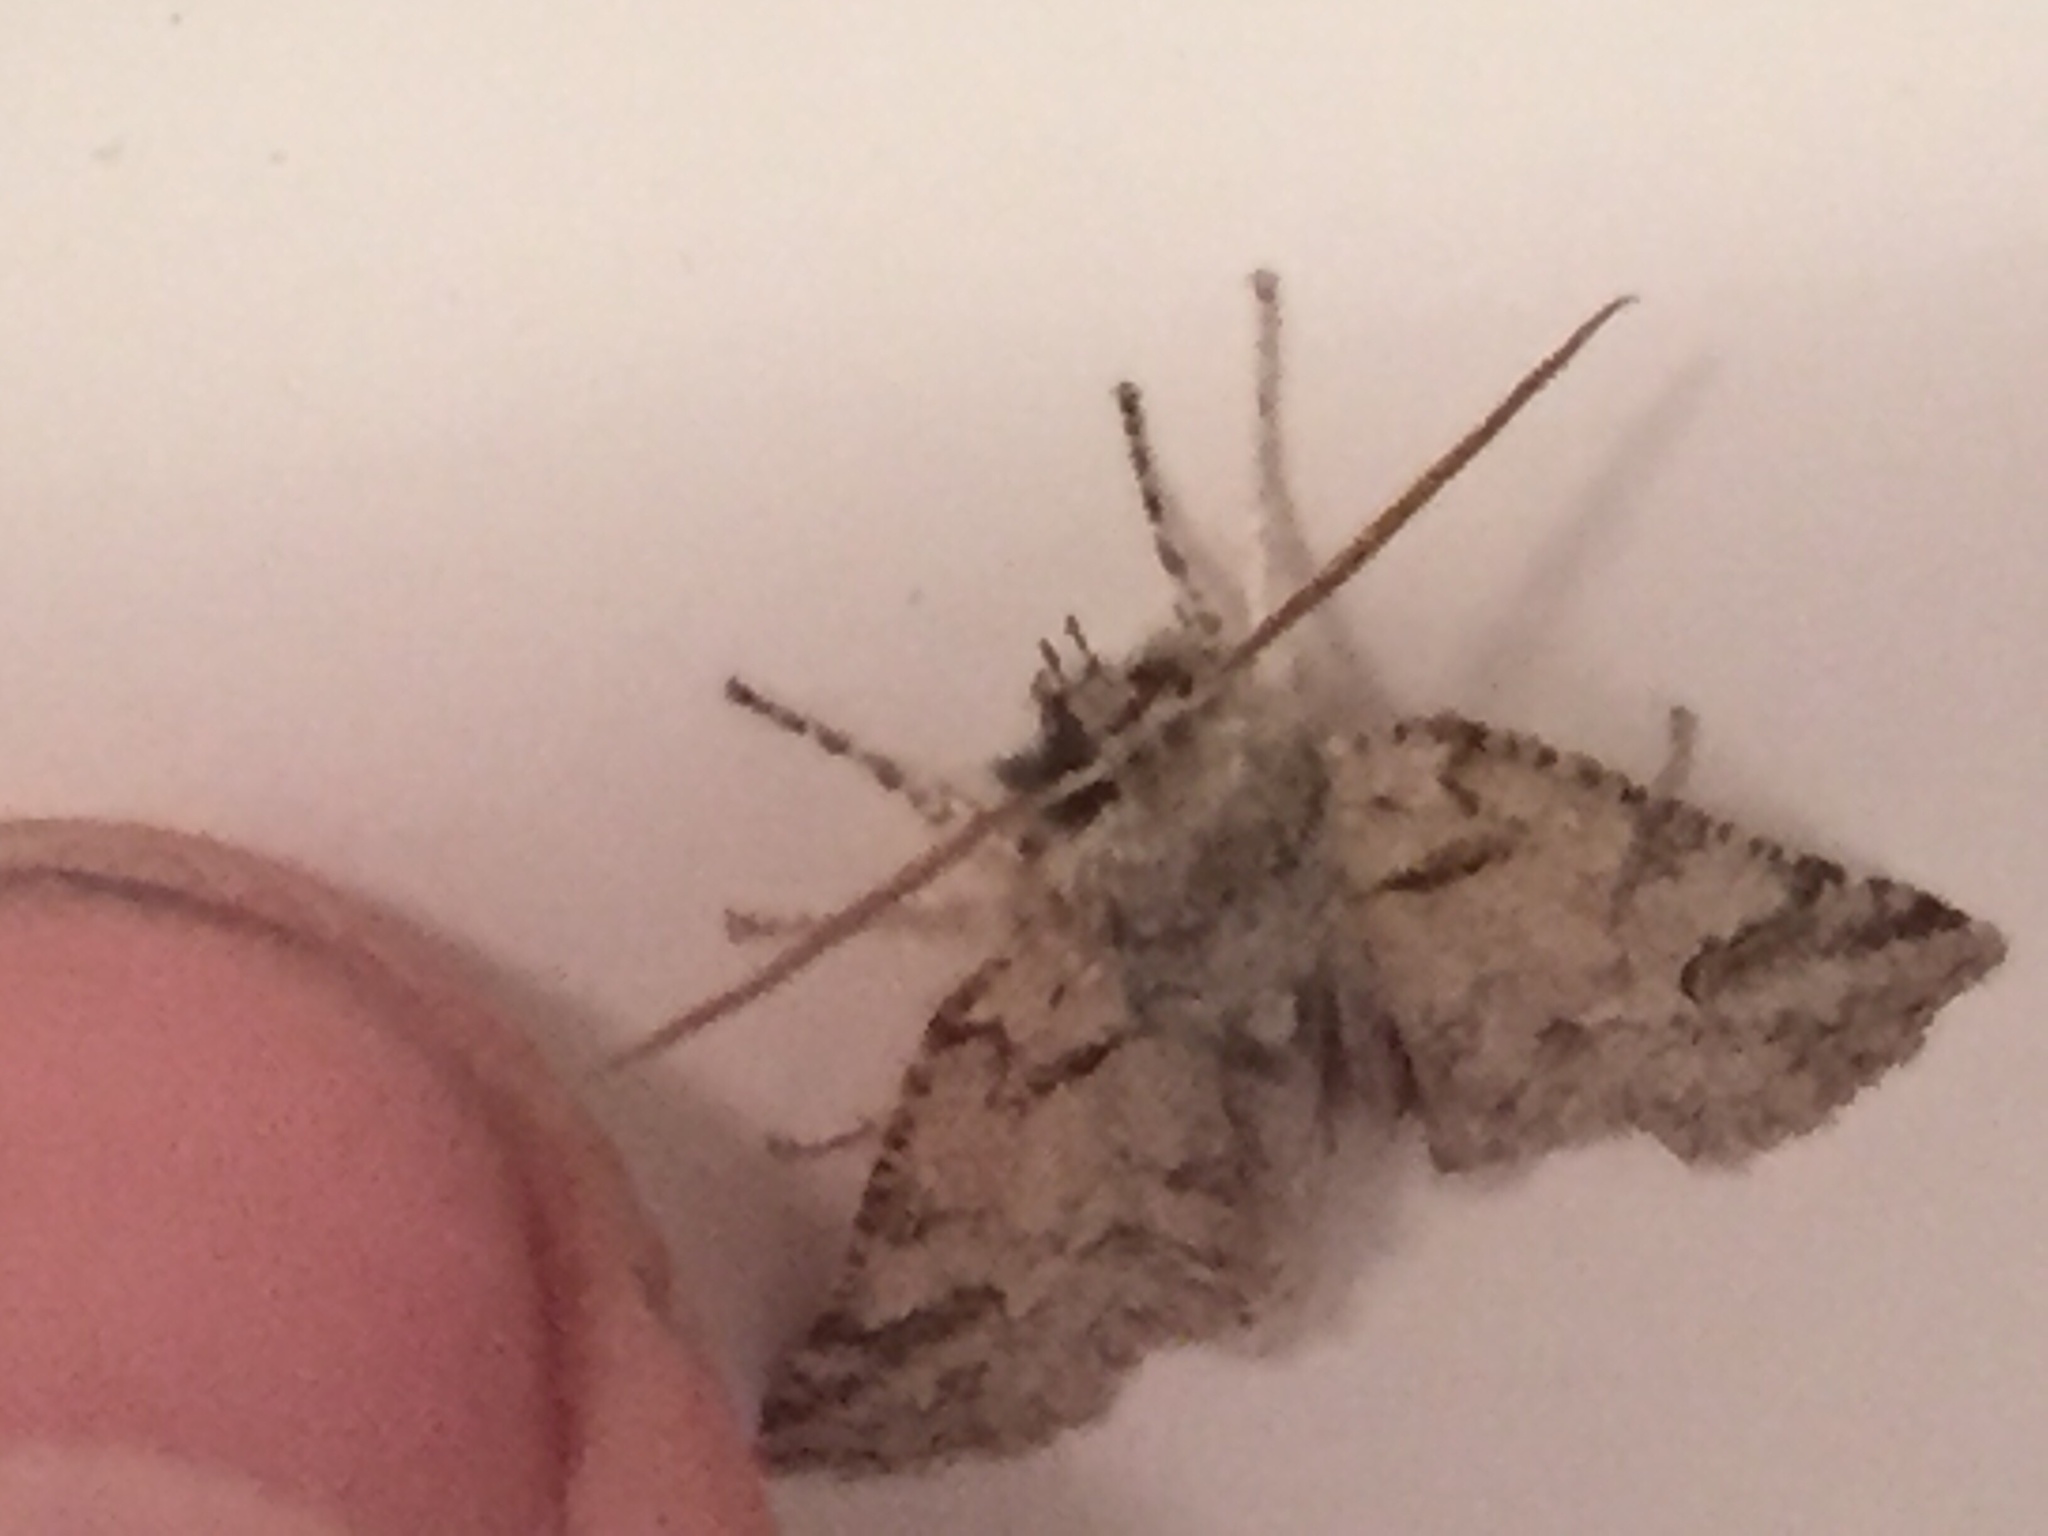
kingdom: Animalia
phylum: Arthropoda
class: Insecta
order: Lepidoptera
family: Geometridae
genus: Declana
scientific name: Declana floccosa
